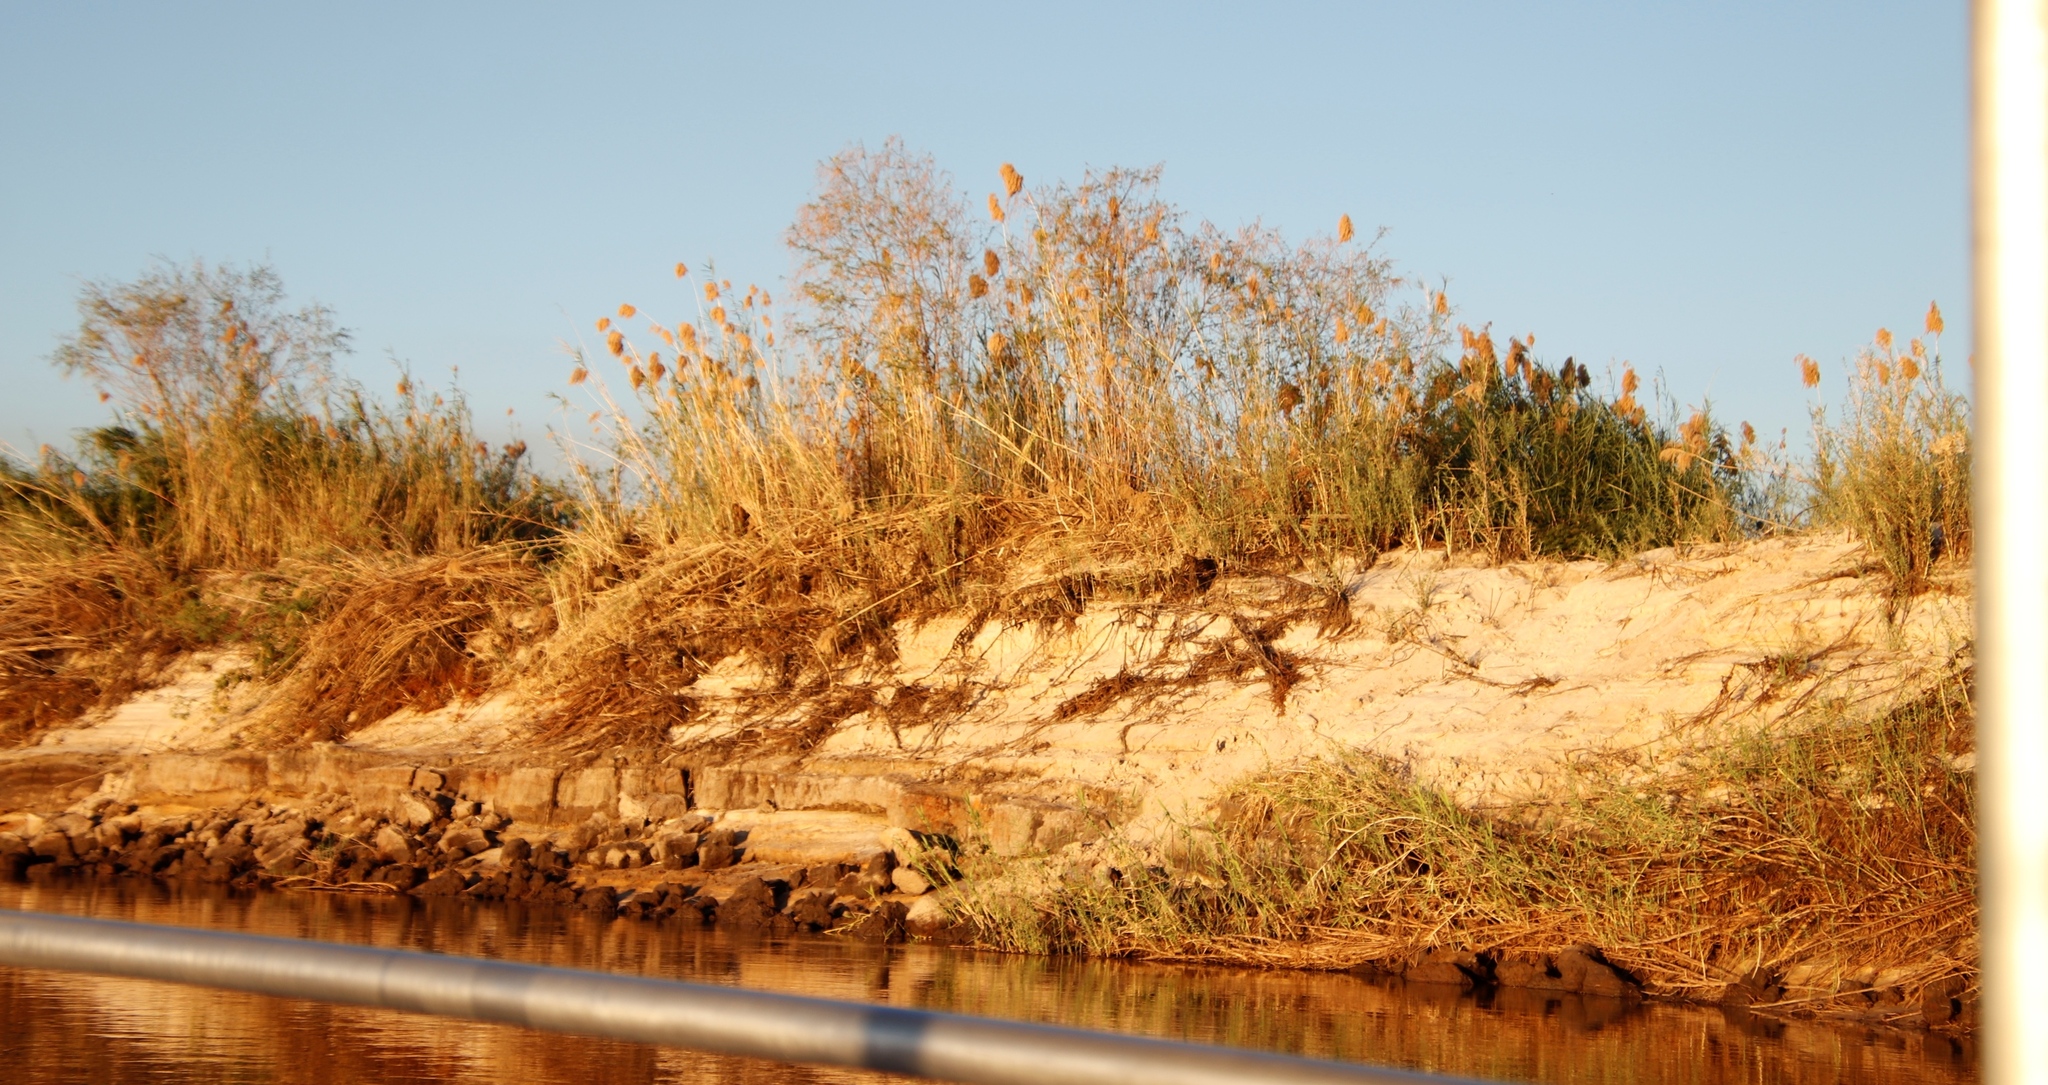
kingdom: Plantae
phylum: Tracheophyta
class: Liliopsida
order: Poales
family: Poaceae
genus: Phragmites
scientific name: Phragmites australis
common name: Common reed
